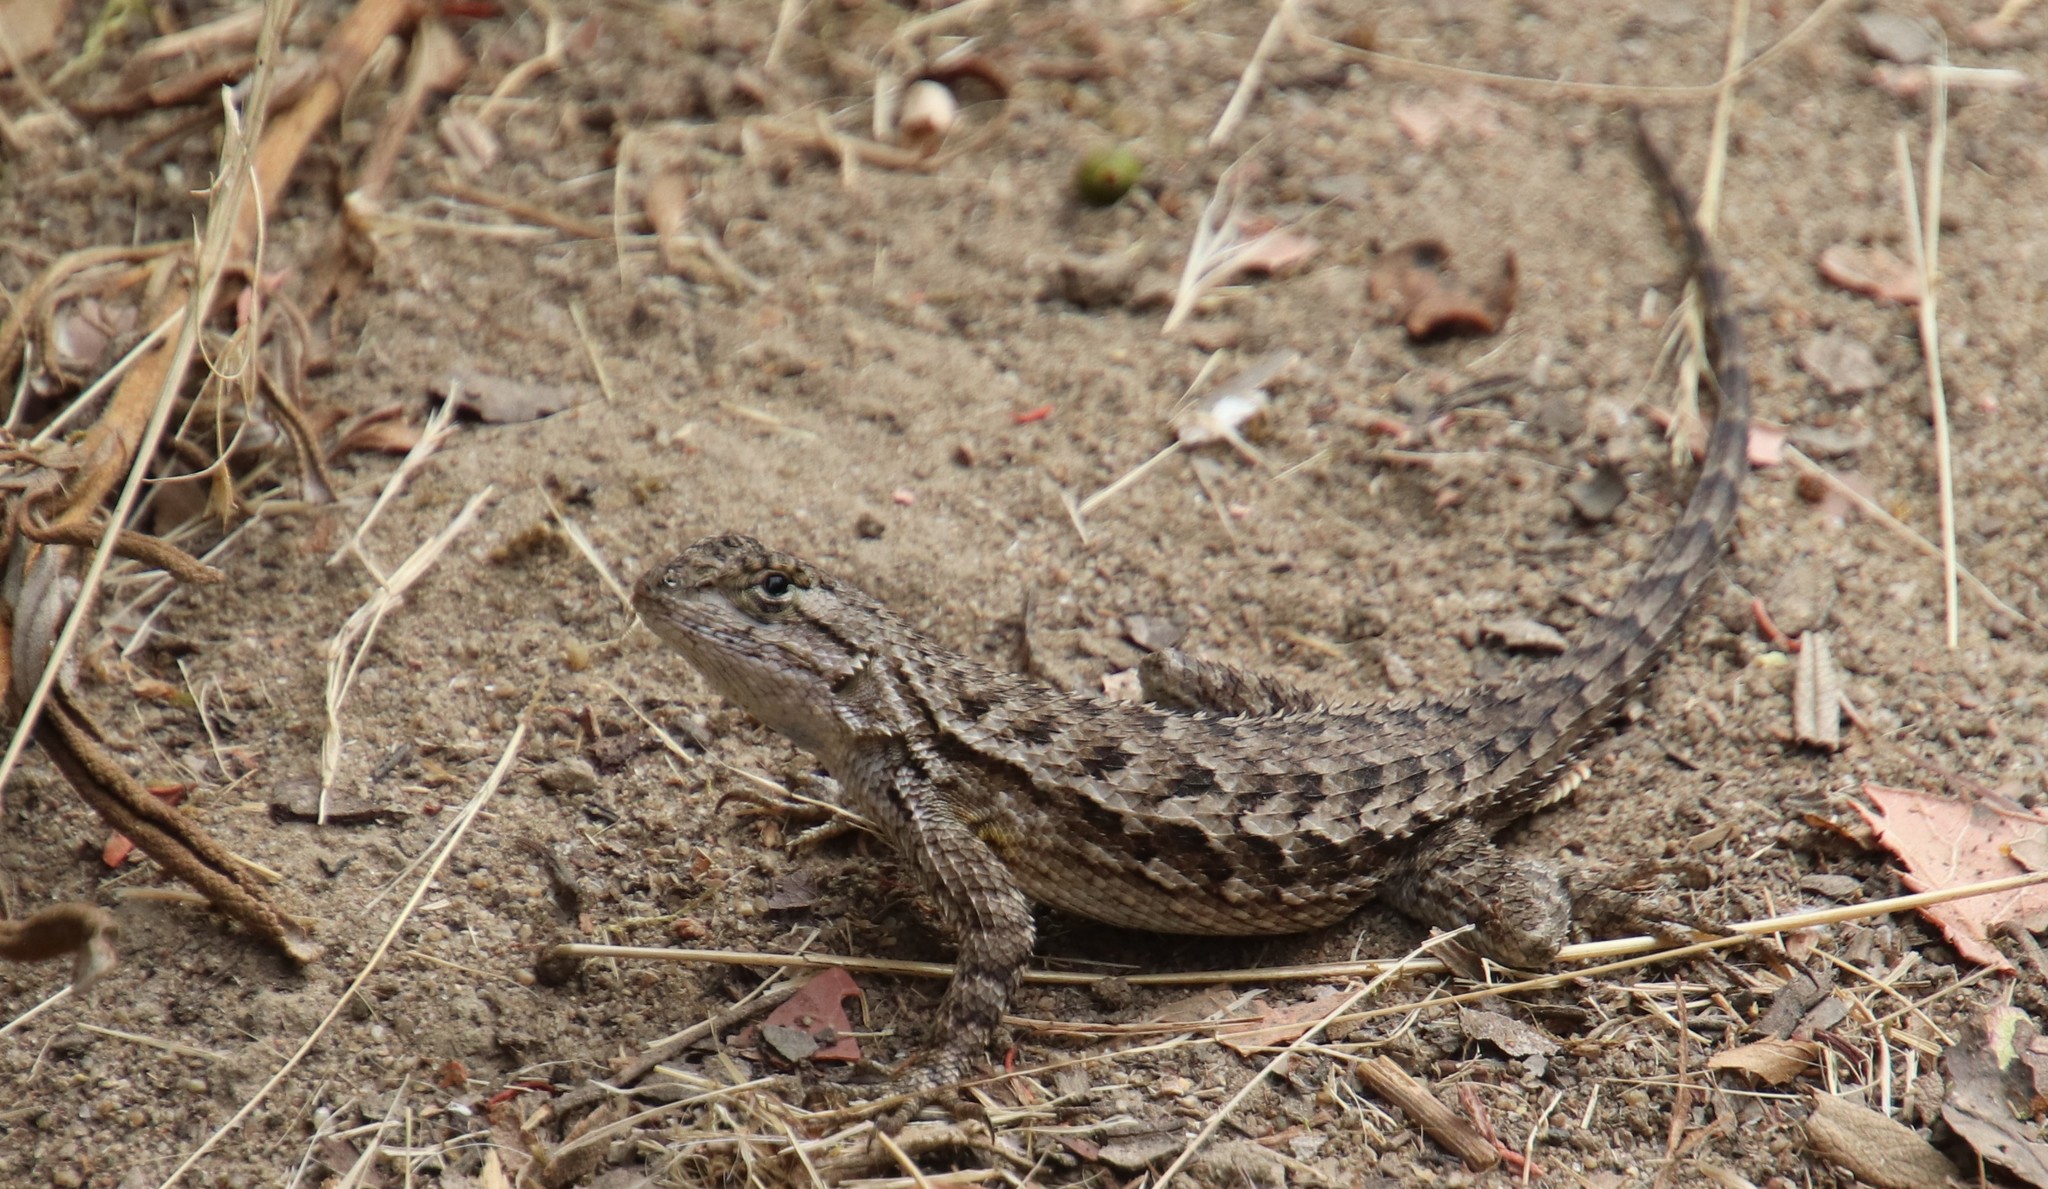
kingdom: Animalia
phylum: Chordata
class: Squamata
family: Phrynosomatidae
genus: Sceloporus
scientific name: Sceloporus occidentalis
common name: Western fence lizard
